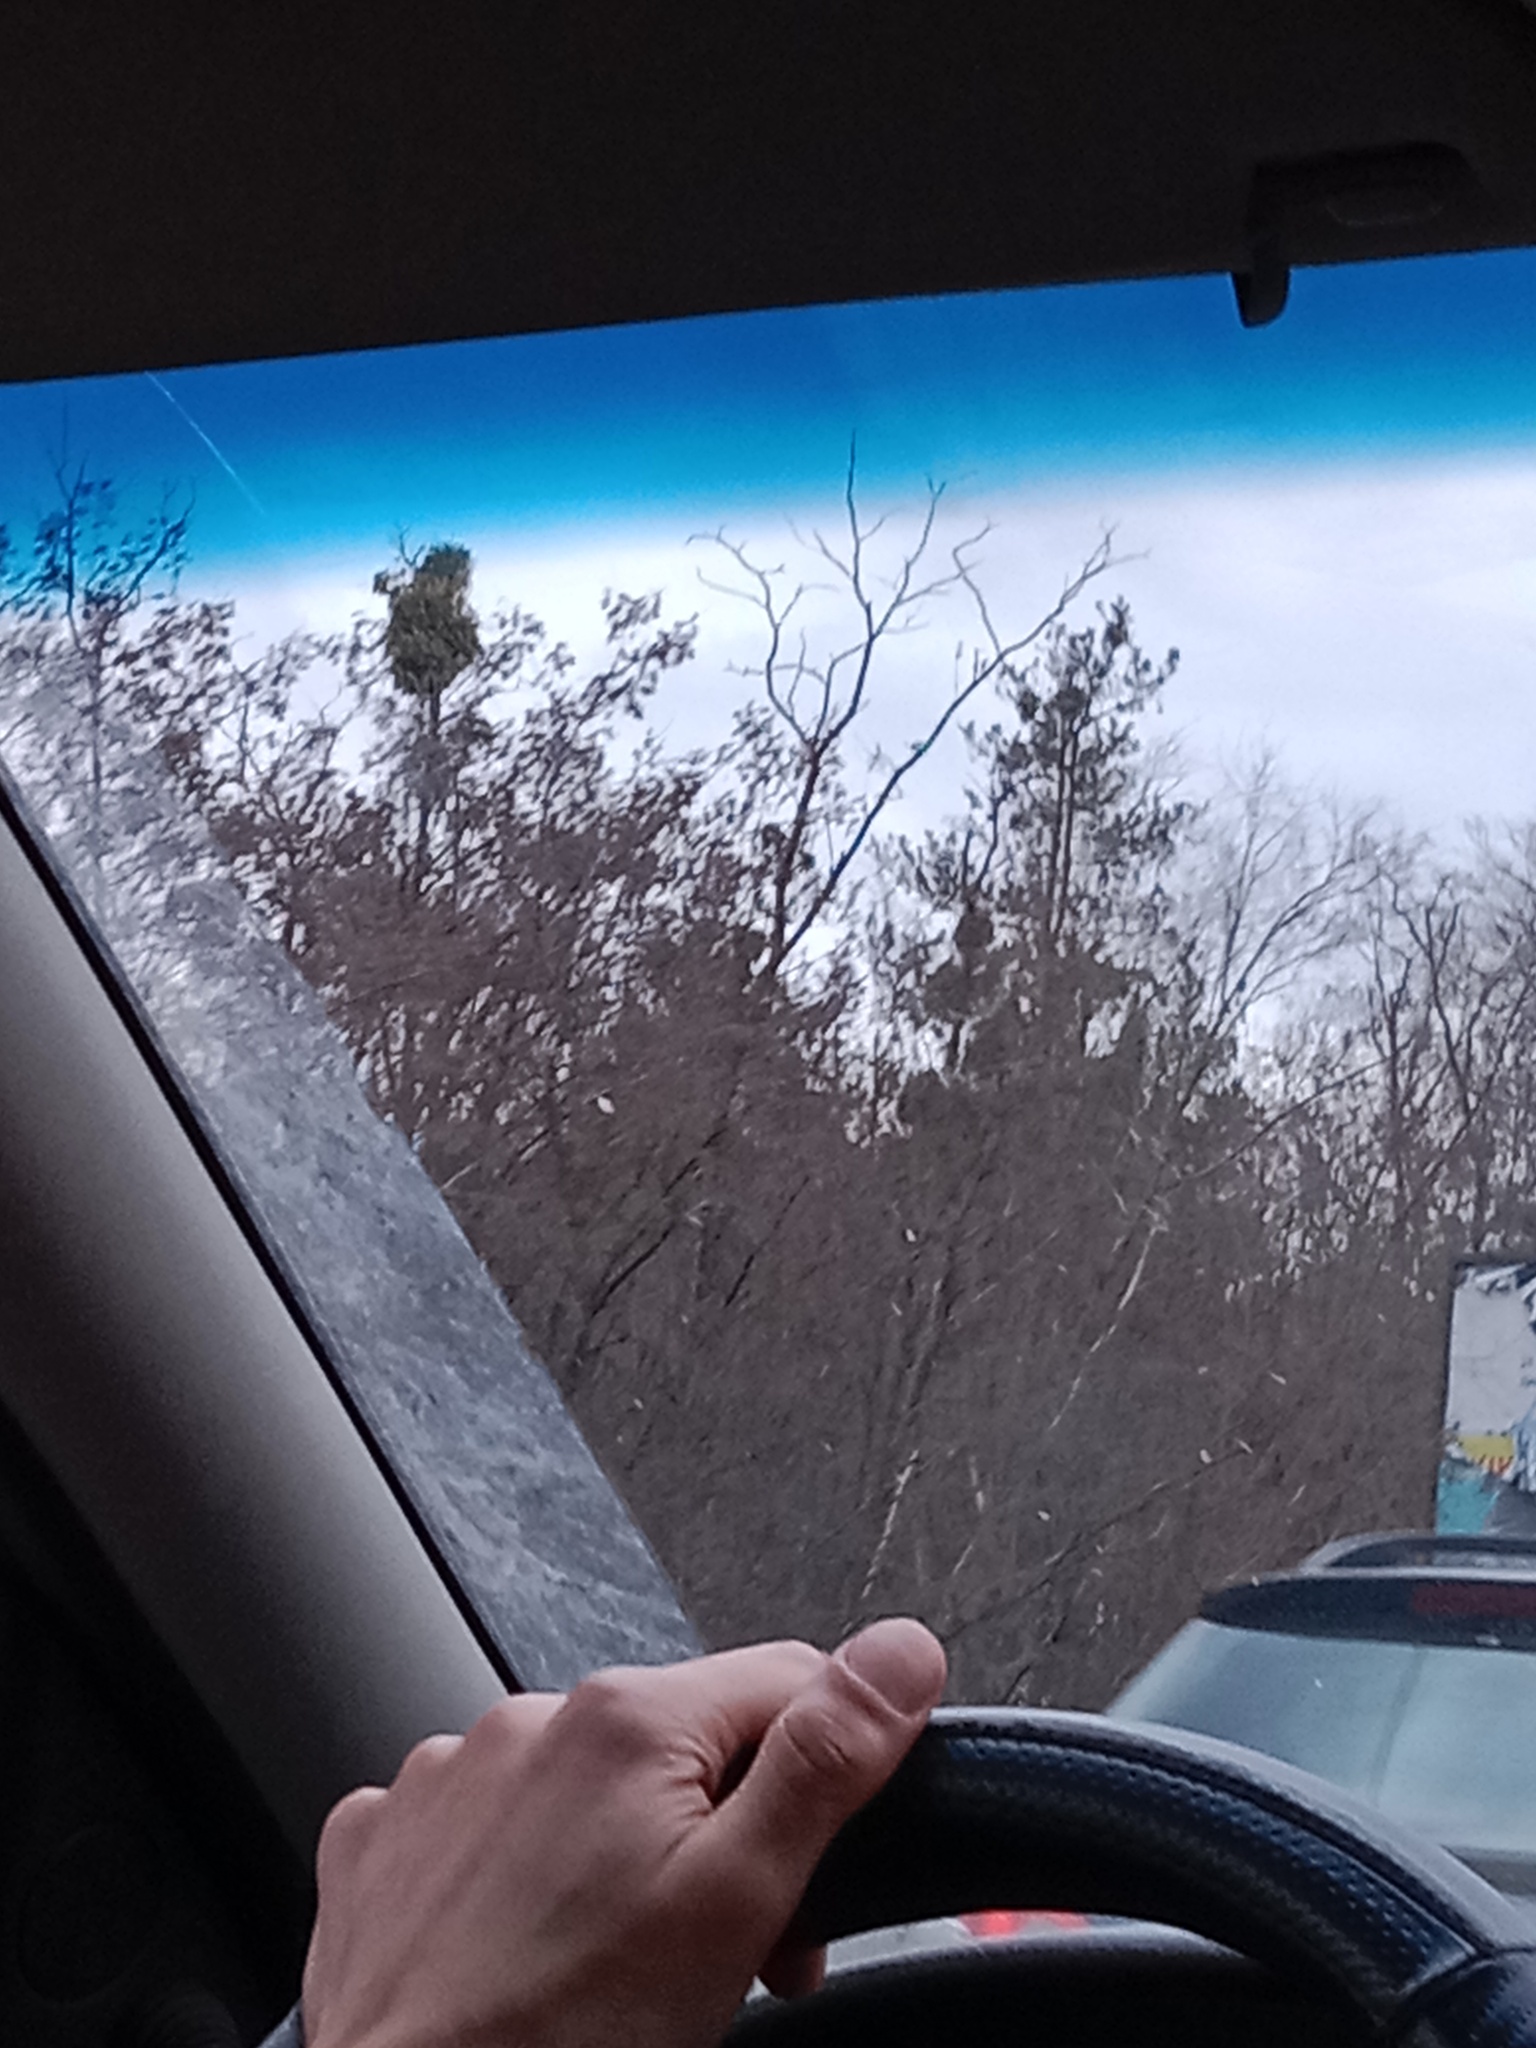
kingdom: Plantae
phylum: Tracheophyta
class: Magnoliopsida
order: Santalales
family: Viscaceae
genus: Viscum
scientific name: Viscum album
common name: Mistletoe
